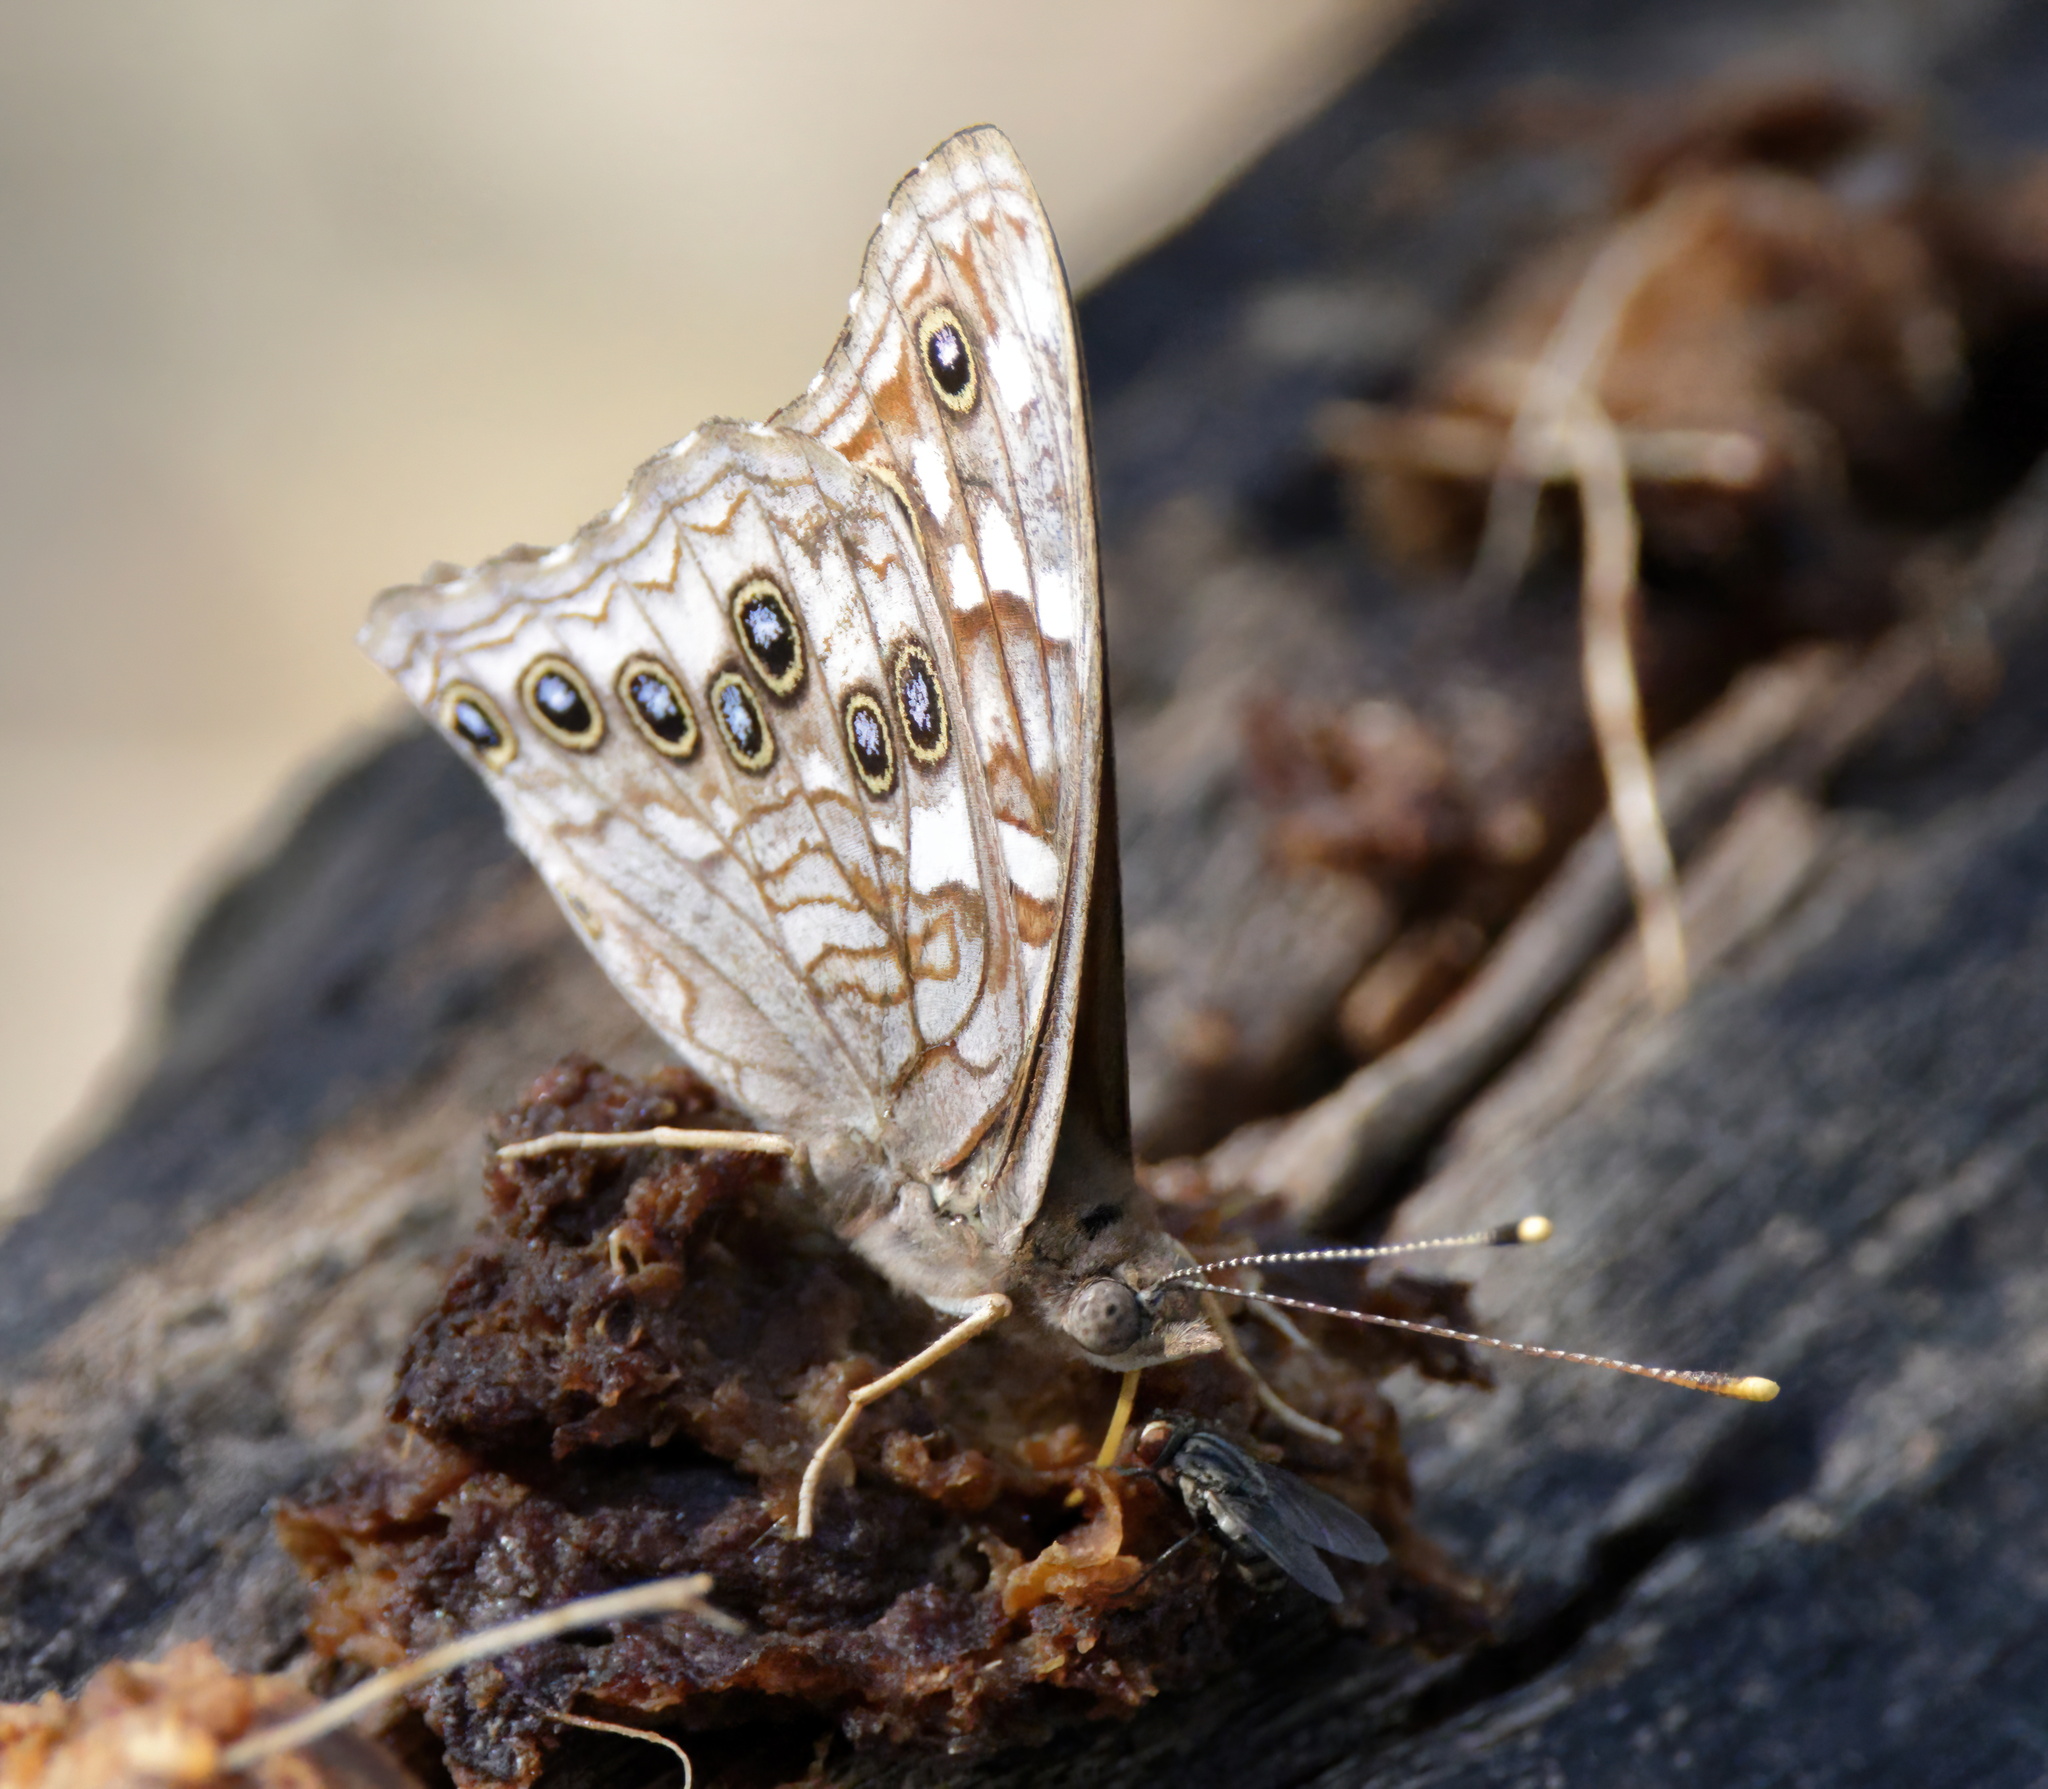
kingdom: Animalia
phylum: Arthropoda
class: Insecta
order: Lepidoptera
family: Nymphalidae
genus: Asterocampa
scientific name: Asterocampa leilia
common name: Empress leilia
